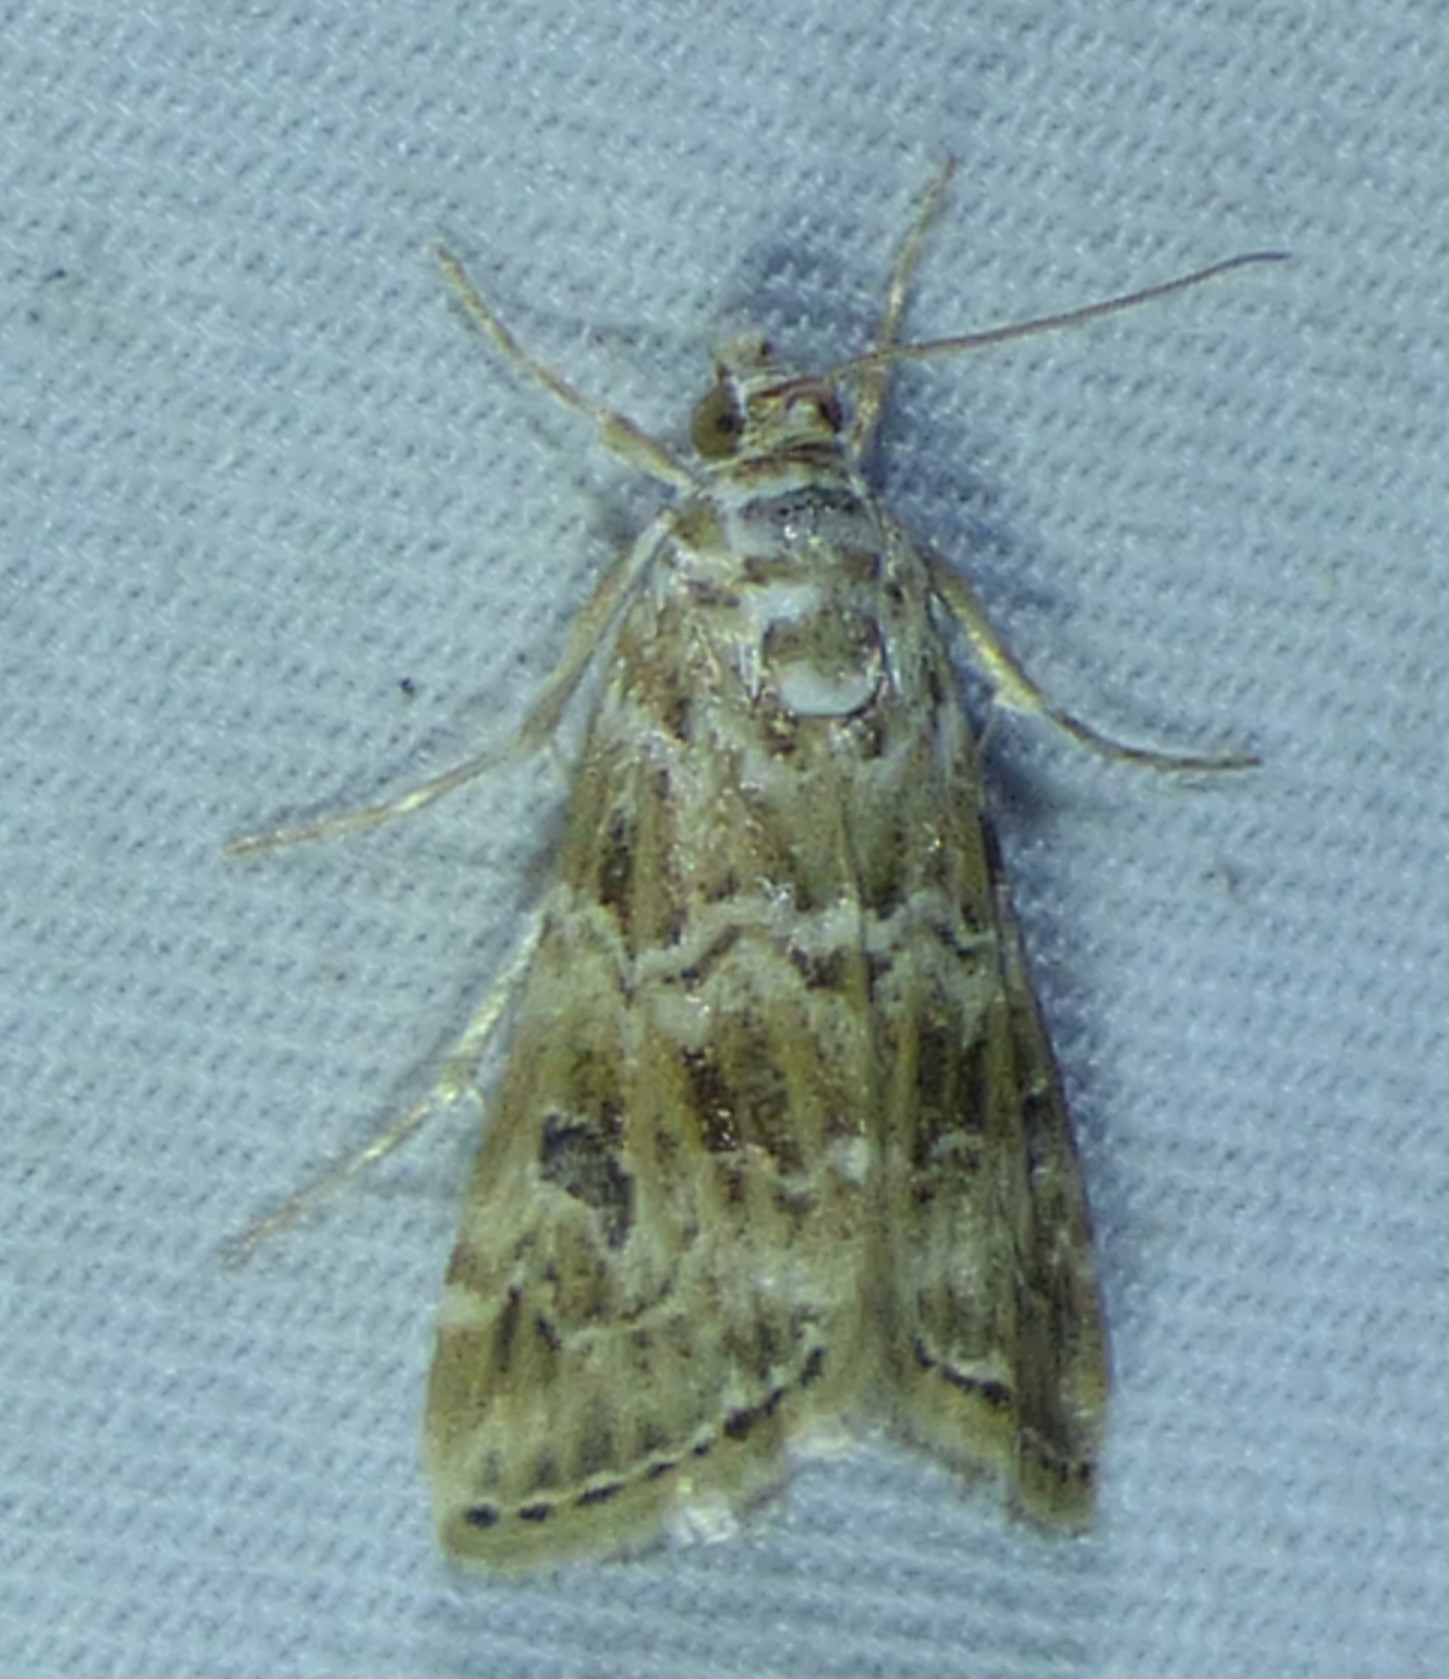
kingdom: Animalia
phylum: Arthropoda
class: Insecta
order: Lepidoptera
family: Crambidae
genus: Hellula
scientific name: Hellula rogatalis
